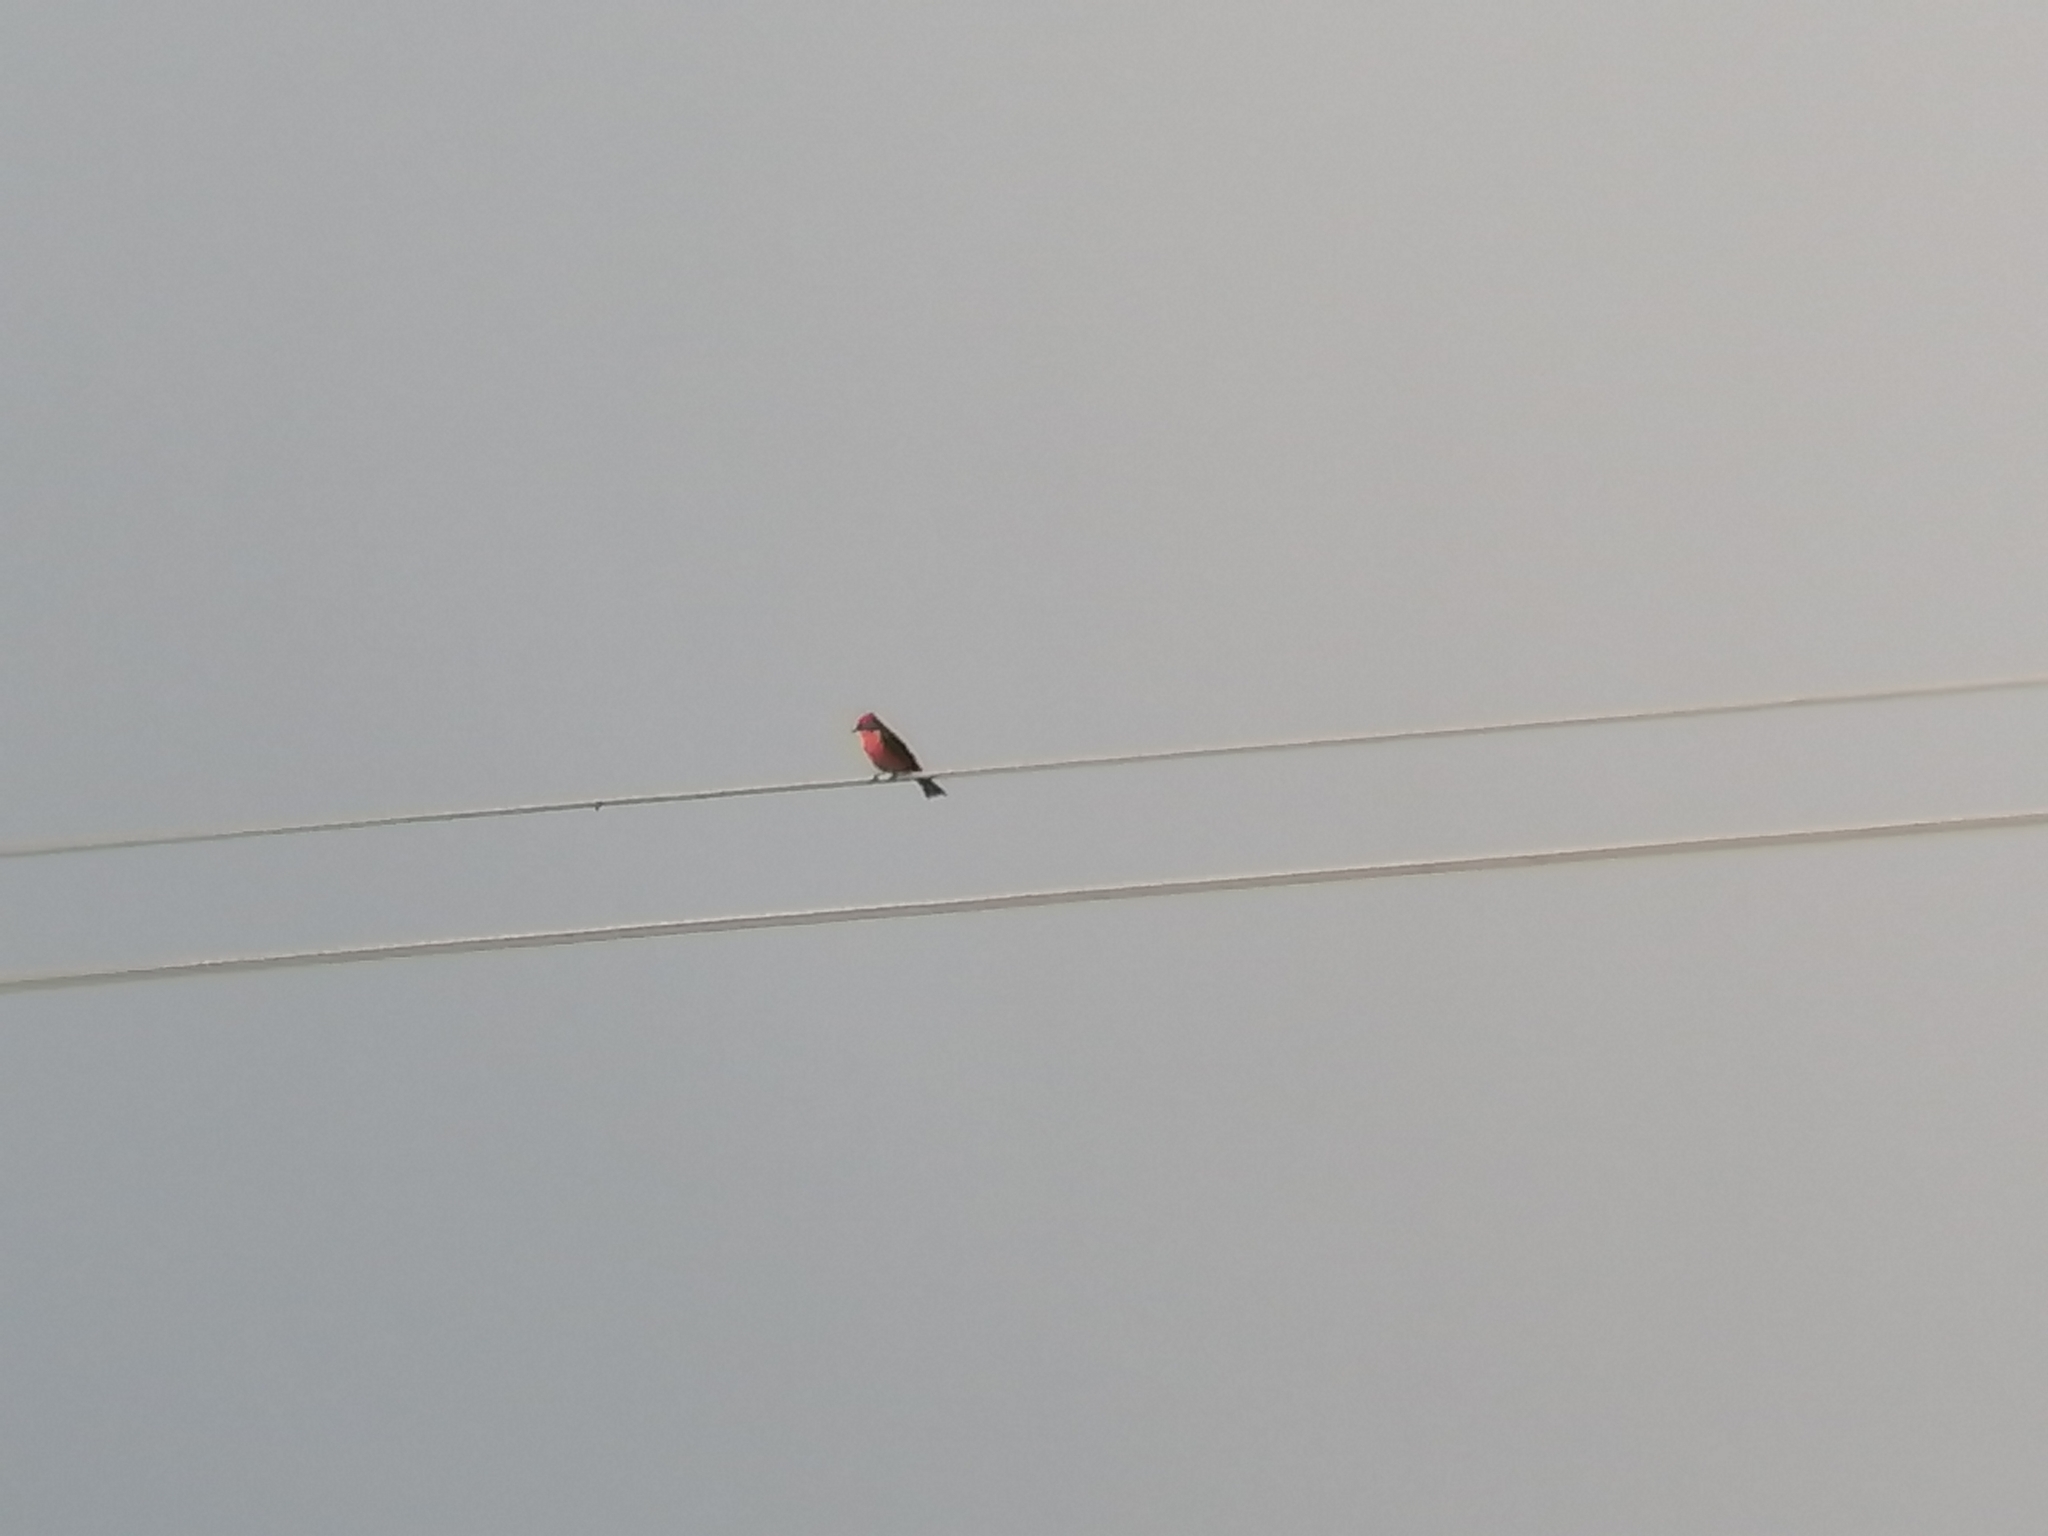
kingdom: Animalia
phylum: Chordata
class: Aves
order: Passeriformes
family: Tyrannidae
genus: Pyrocephalus
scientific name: Pyrocephalus rubinus
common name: Vermilion flycatcher
